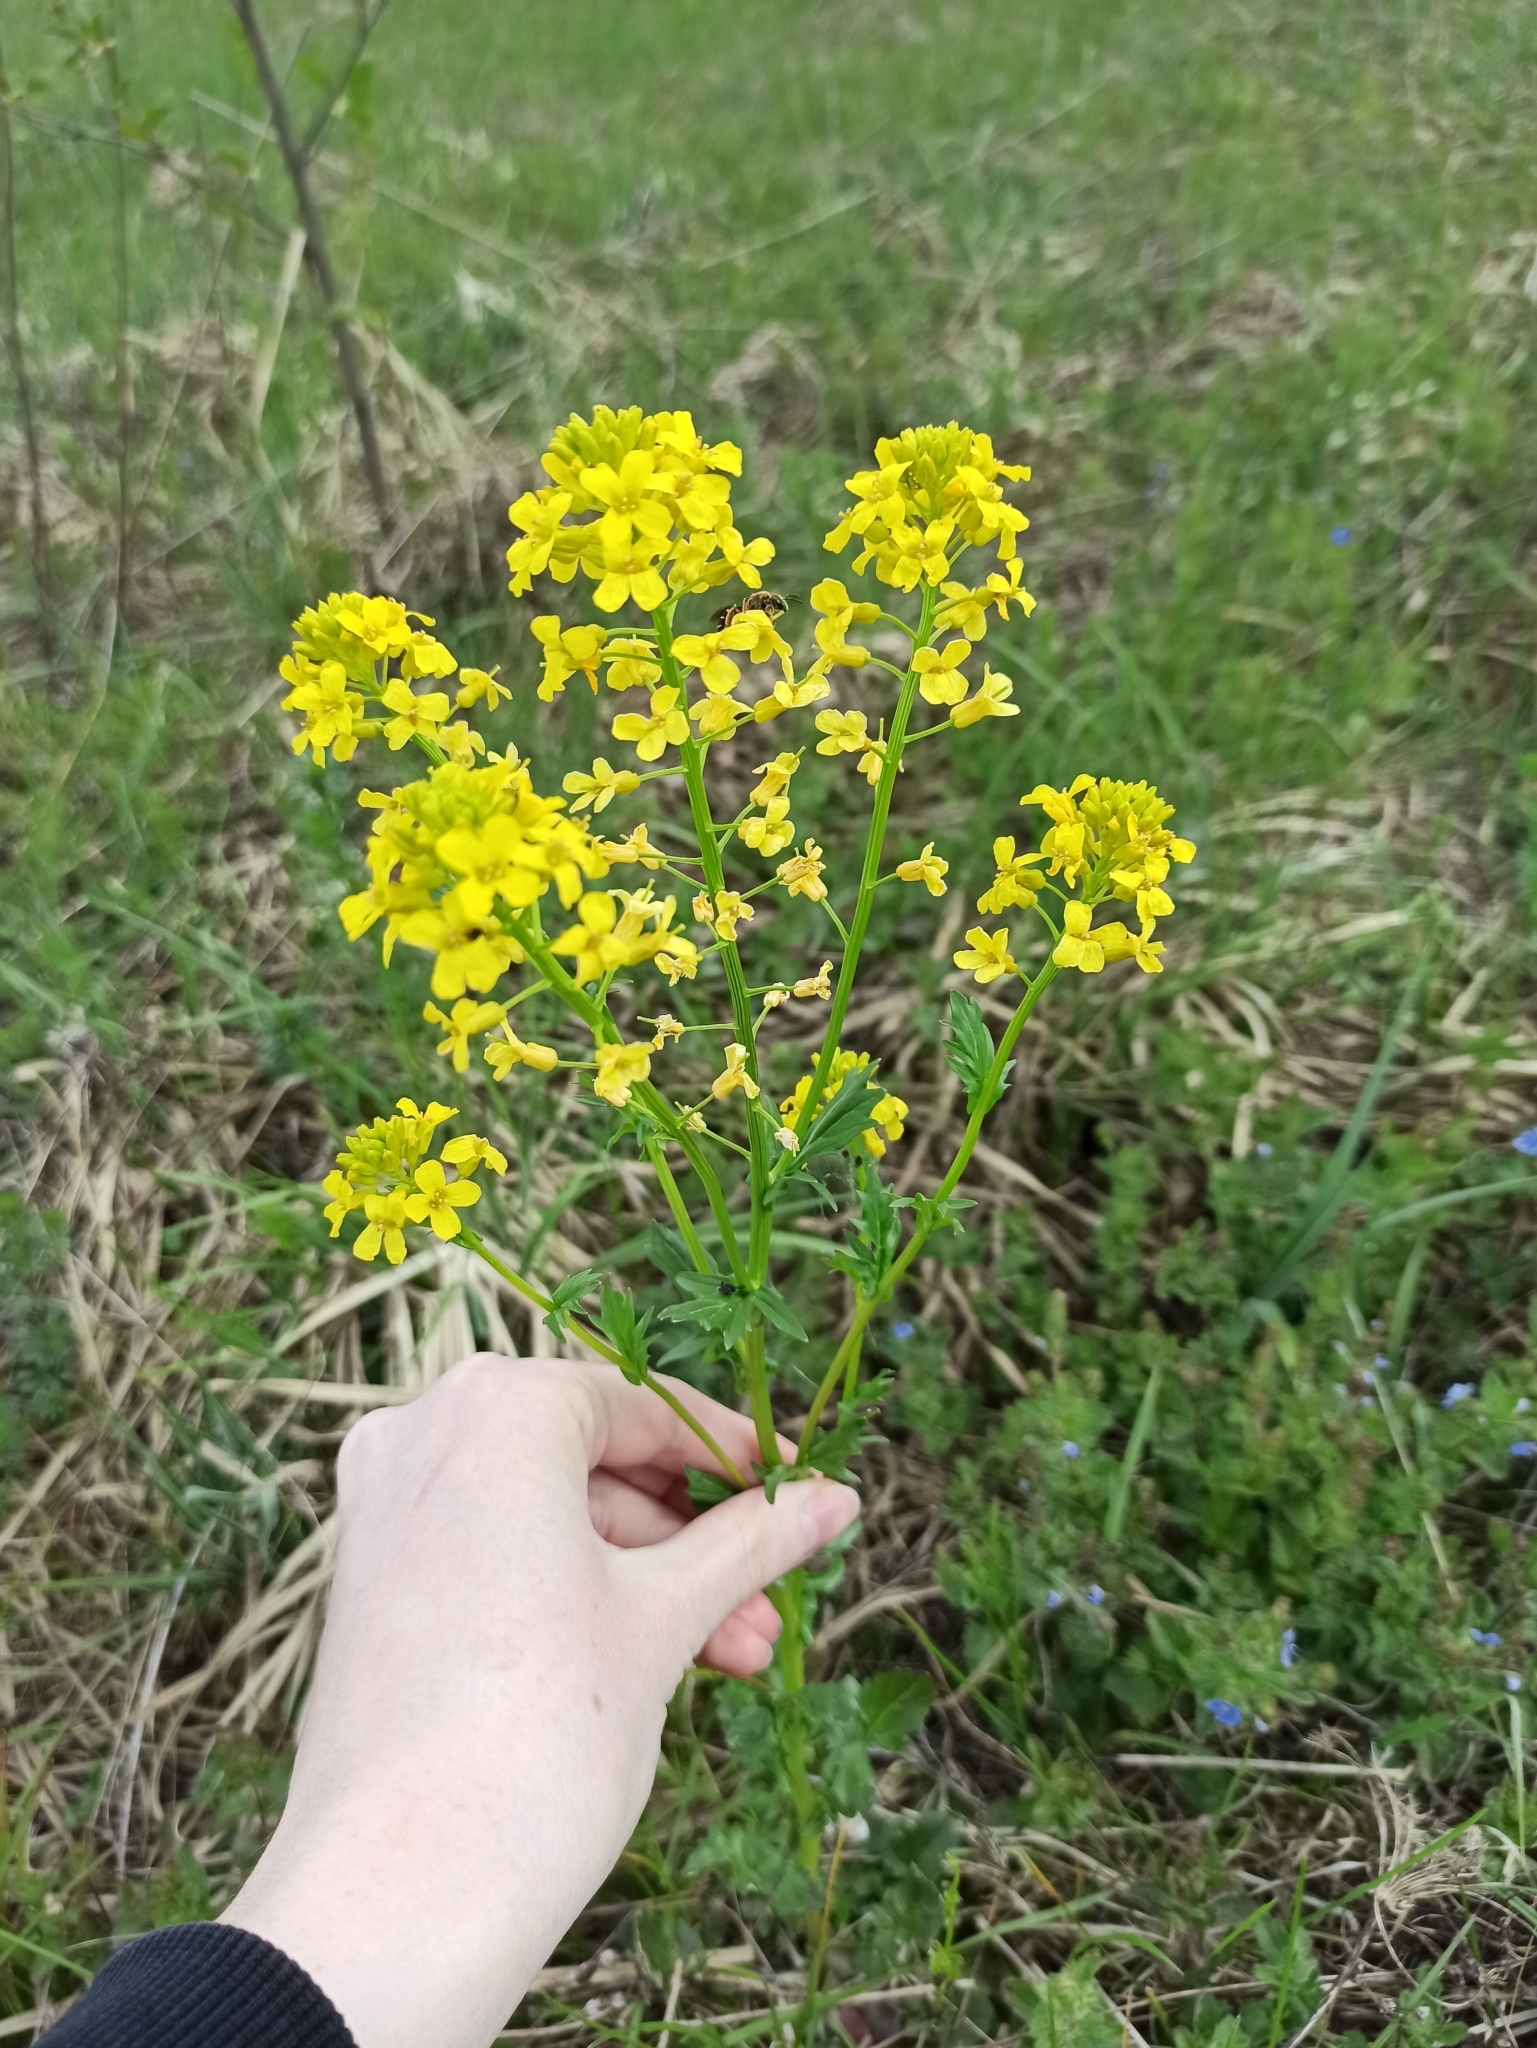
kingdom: Plantae
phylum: Tracheophyta
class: Magnoliopsida
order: Brassicales
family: Brassicaceae
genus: Barbarea
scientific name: Barbarea vulgaris
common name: Cressy-greens
